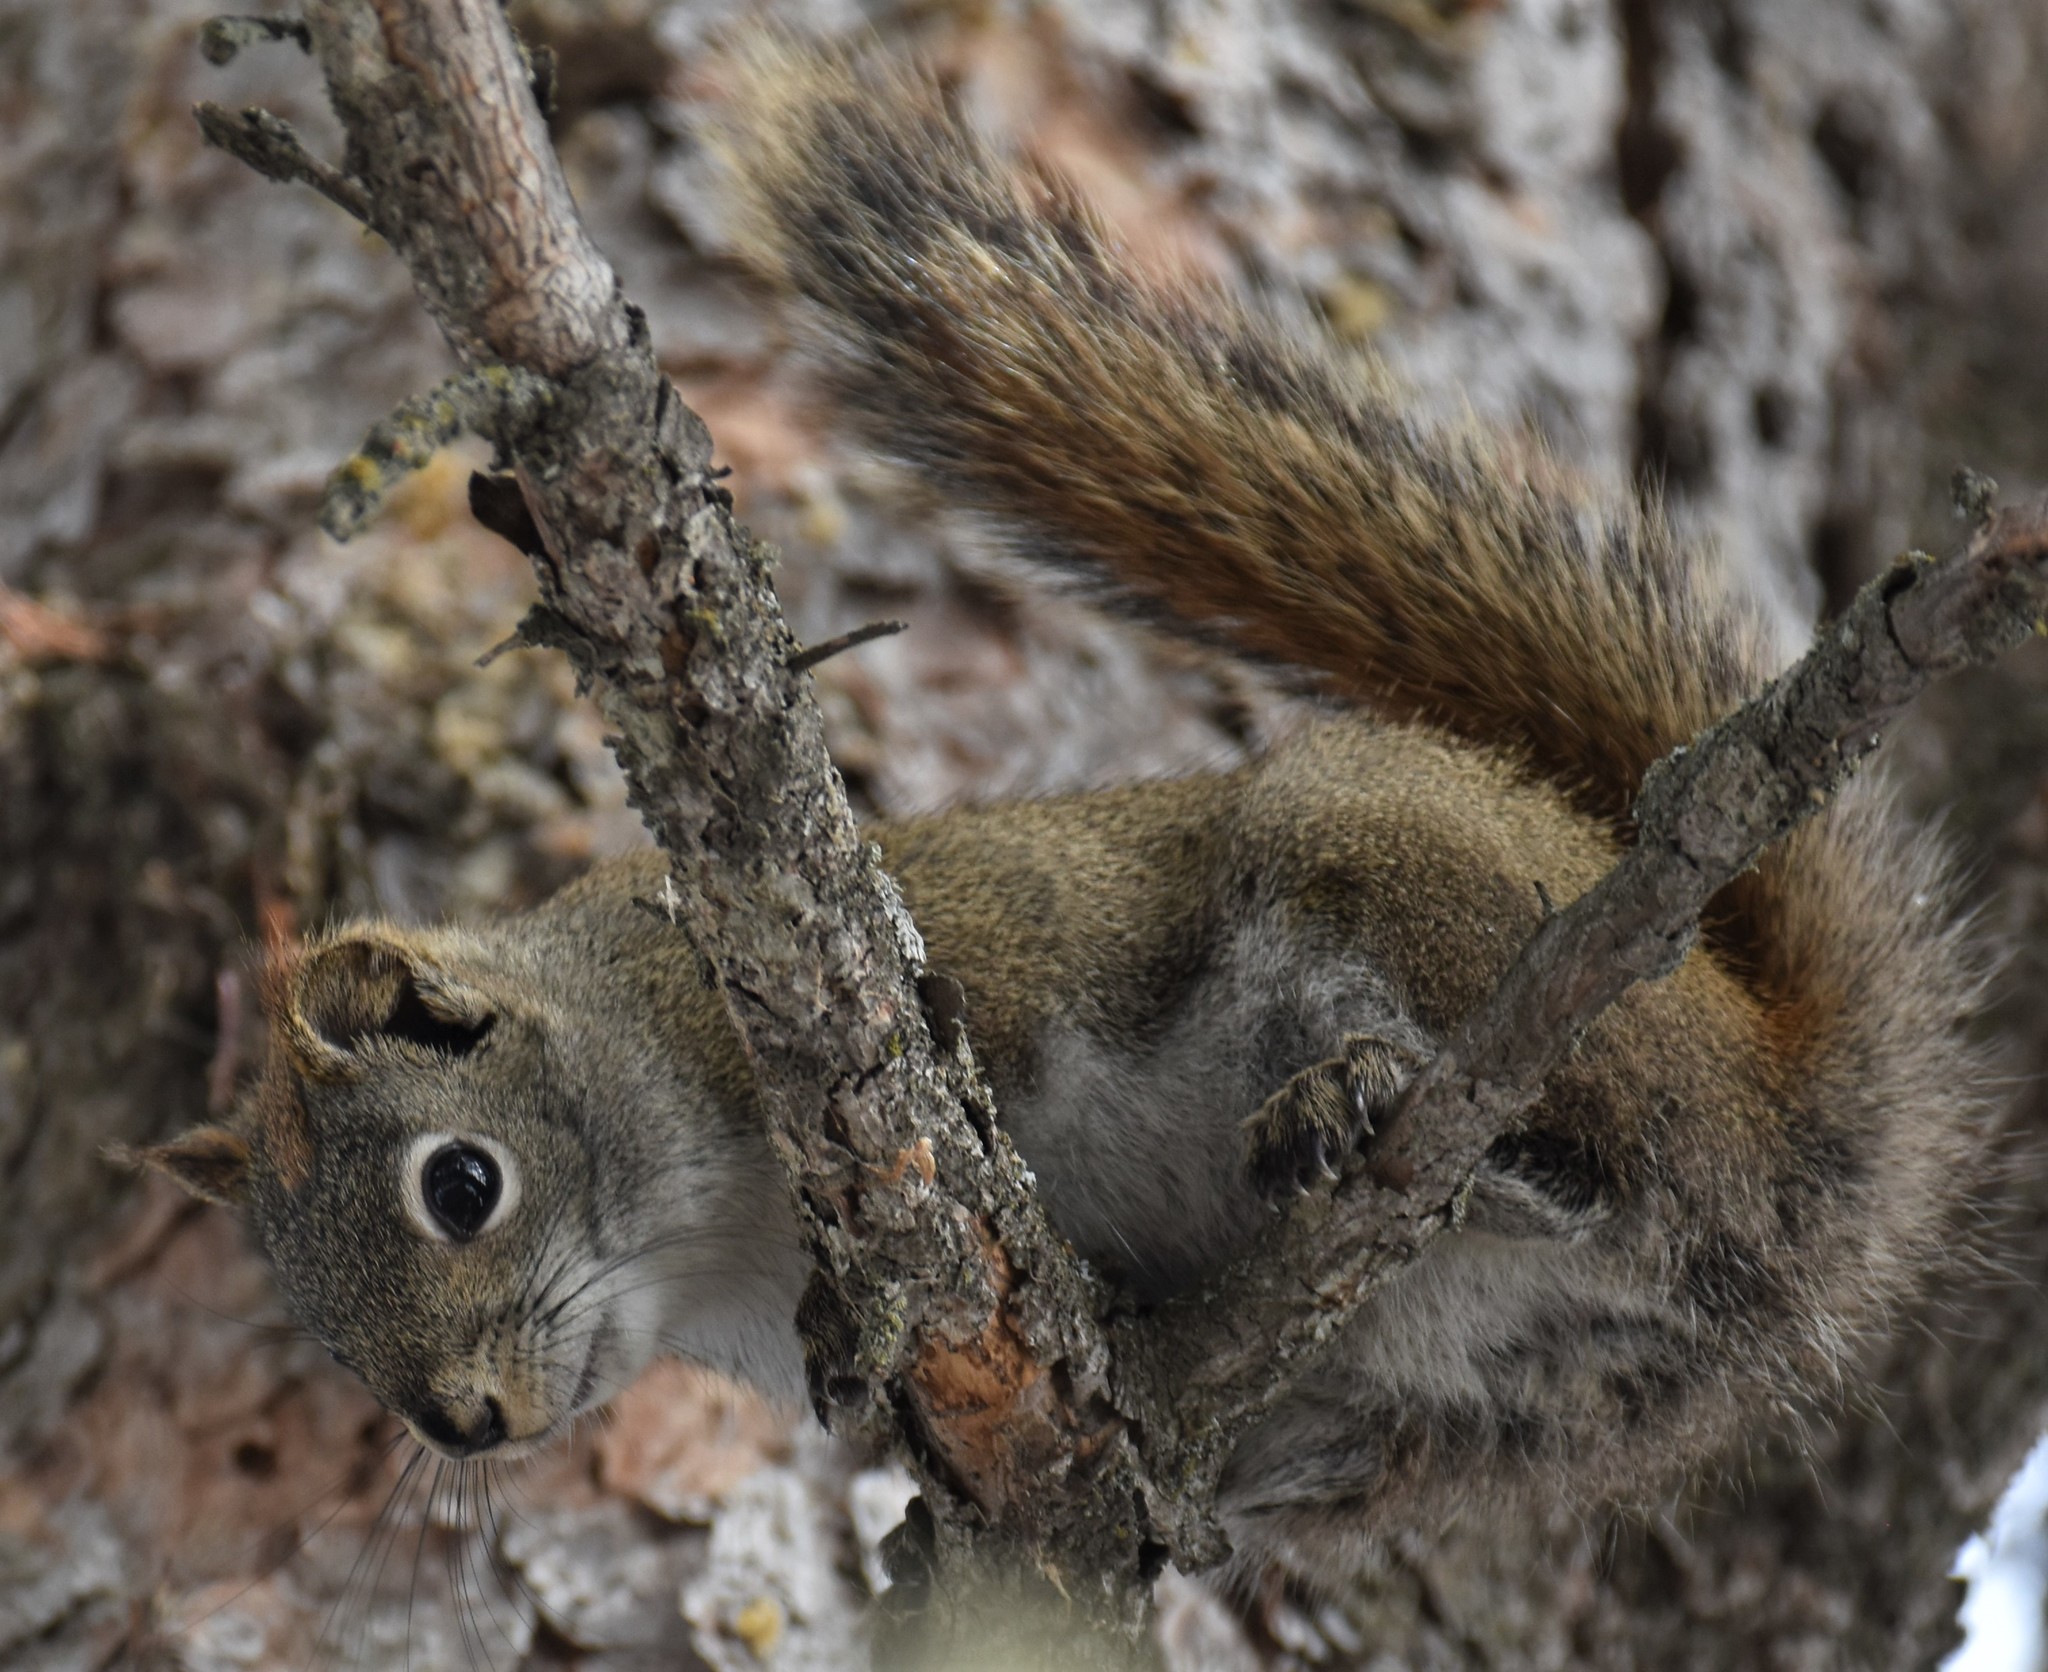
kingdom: Animalia
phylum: Chordata
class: Mammalia
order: Rodentia
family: Sciuridae
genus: Tamiasciurus
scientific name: Tamiasciurus hudsonicus
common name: Red squirrel
